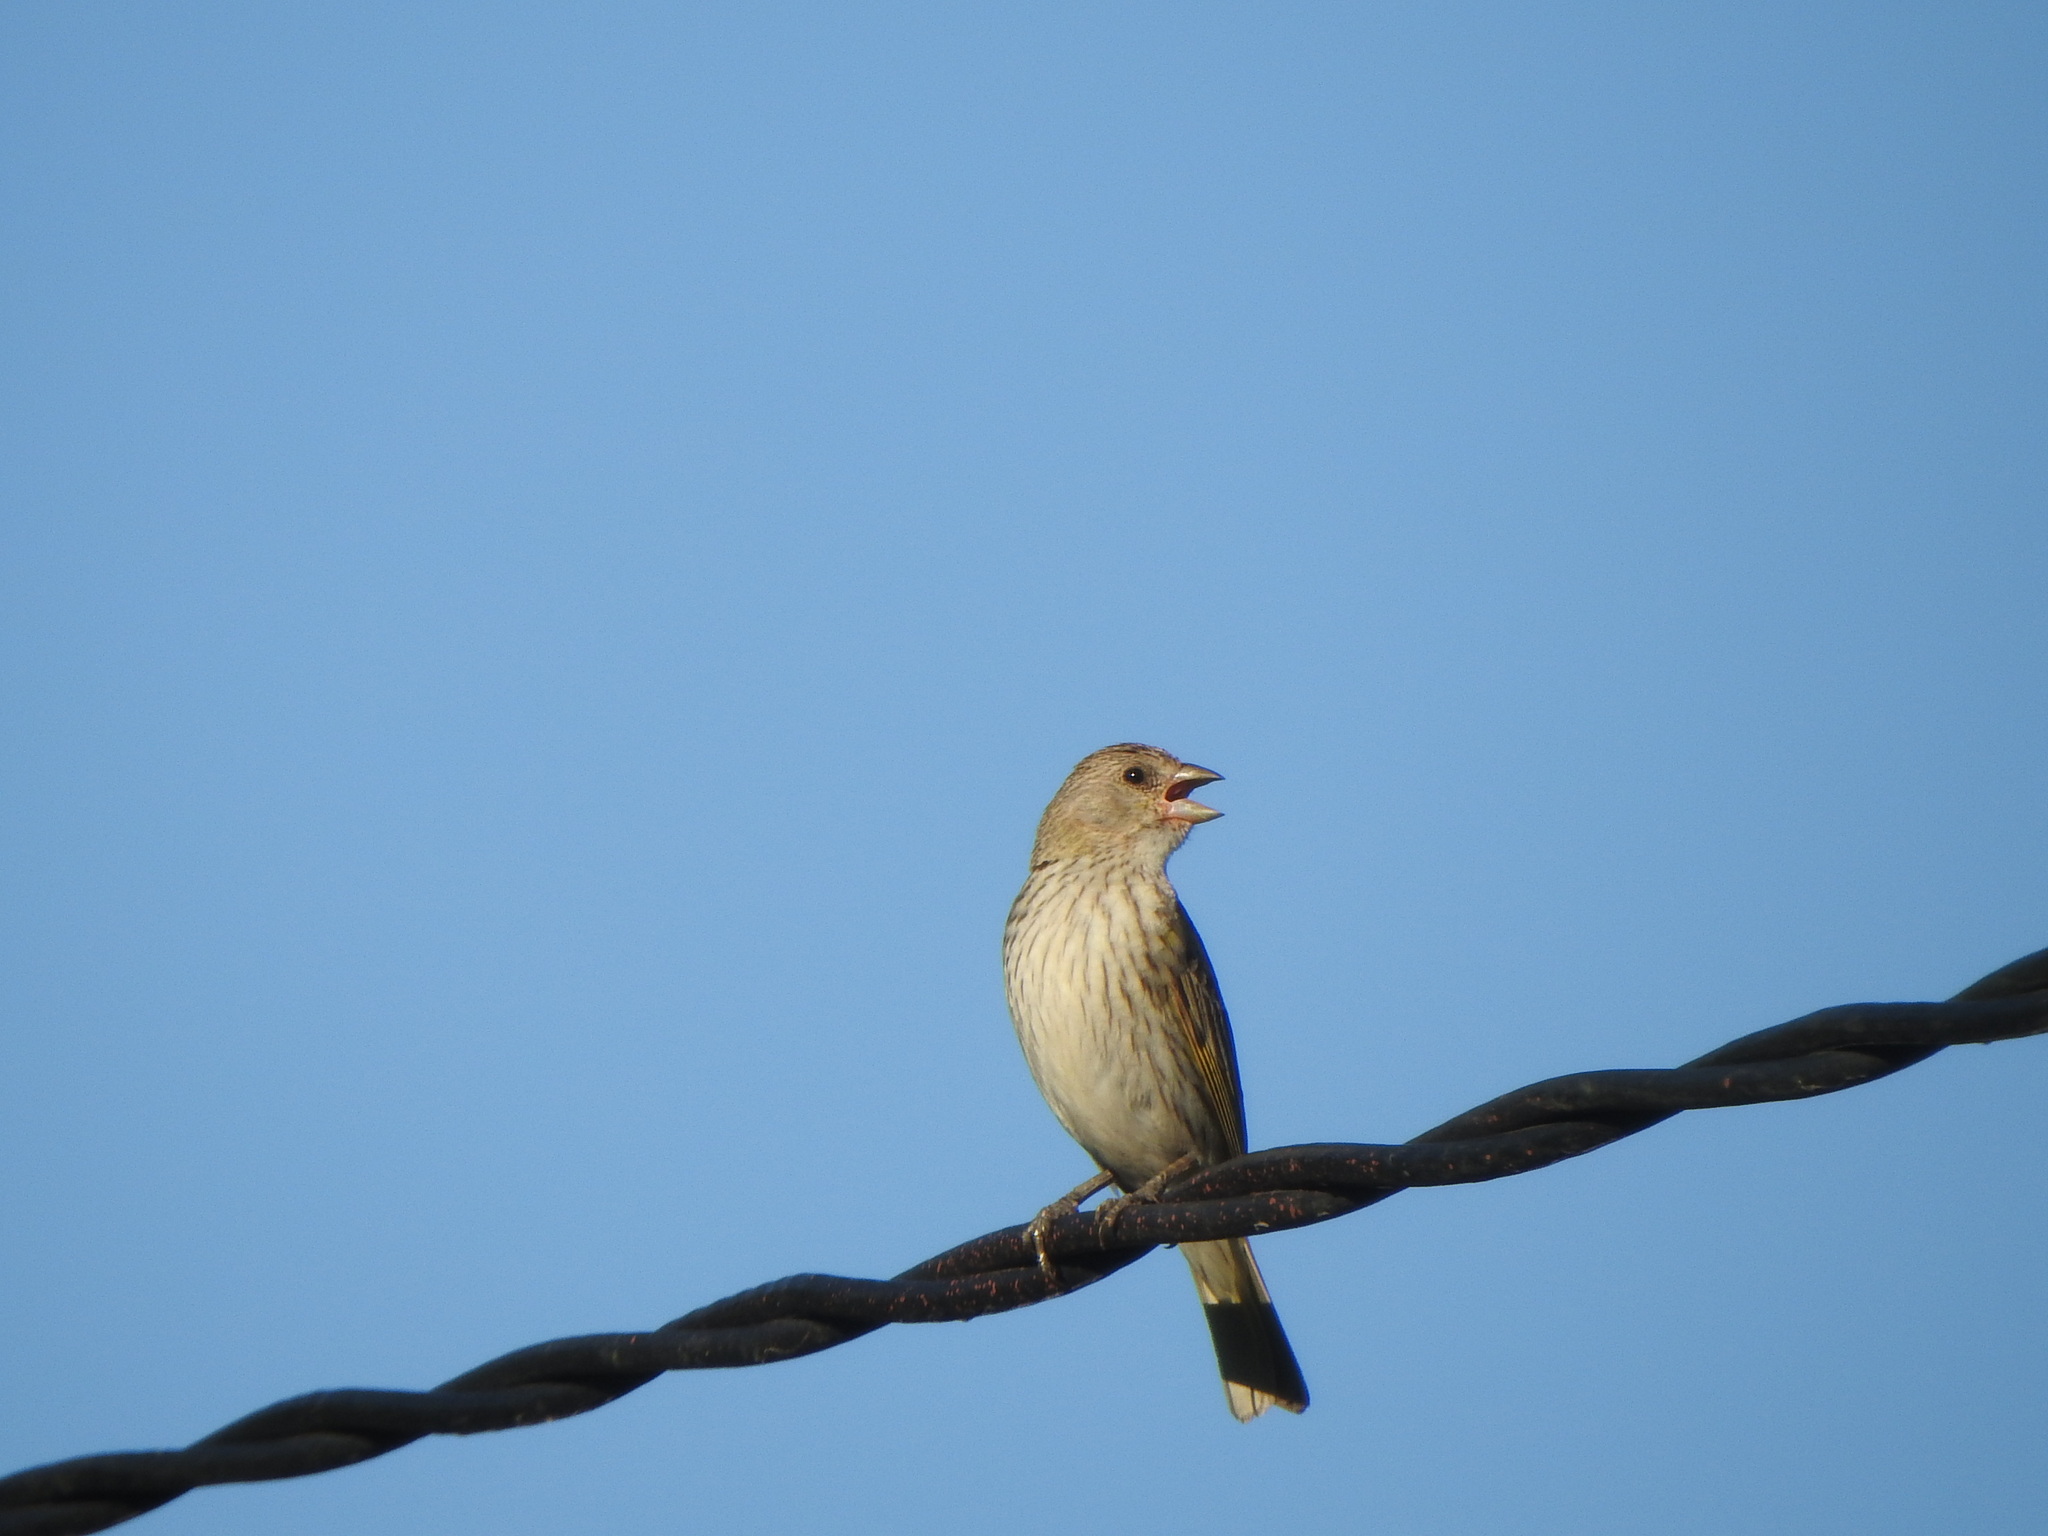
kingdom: Animalia
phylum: Chordata
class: Aves
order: Passeriformes
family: Thraupidae
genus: Sicalis
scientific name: Sicalis flaveola
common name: Saffron finch
